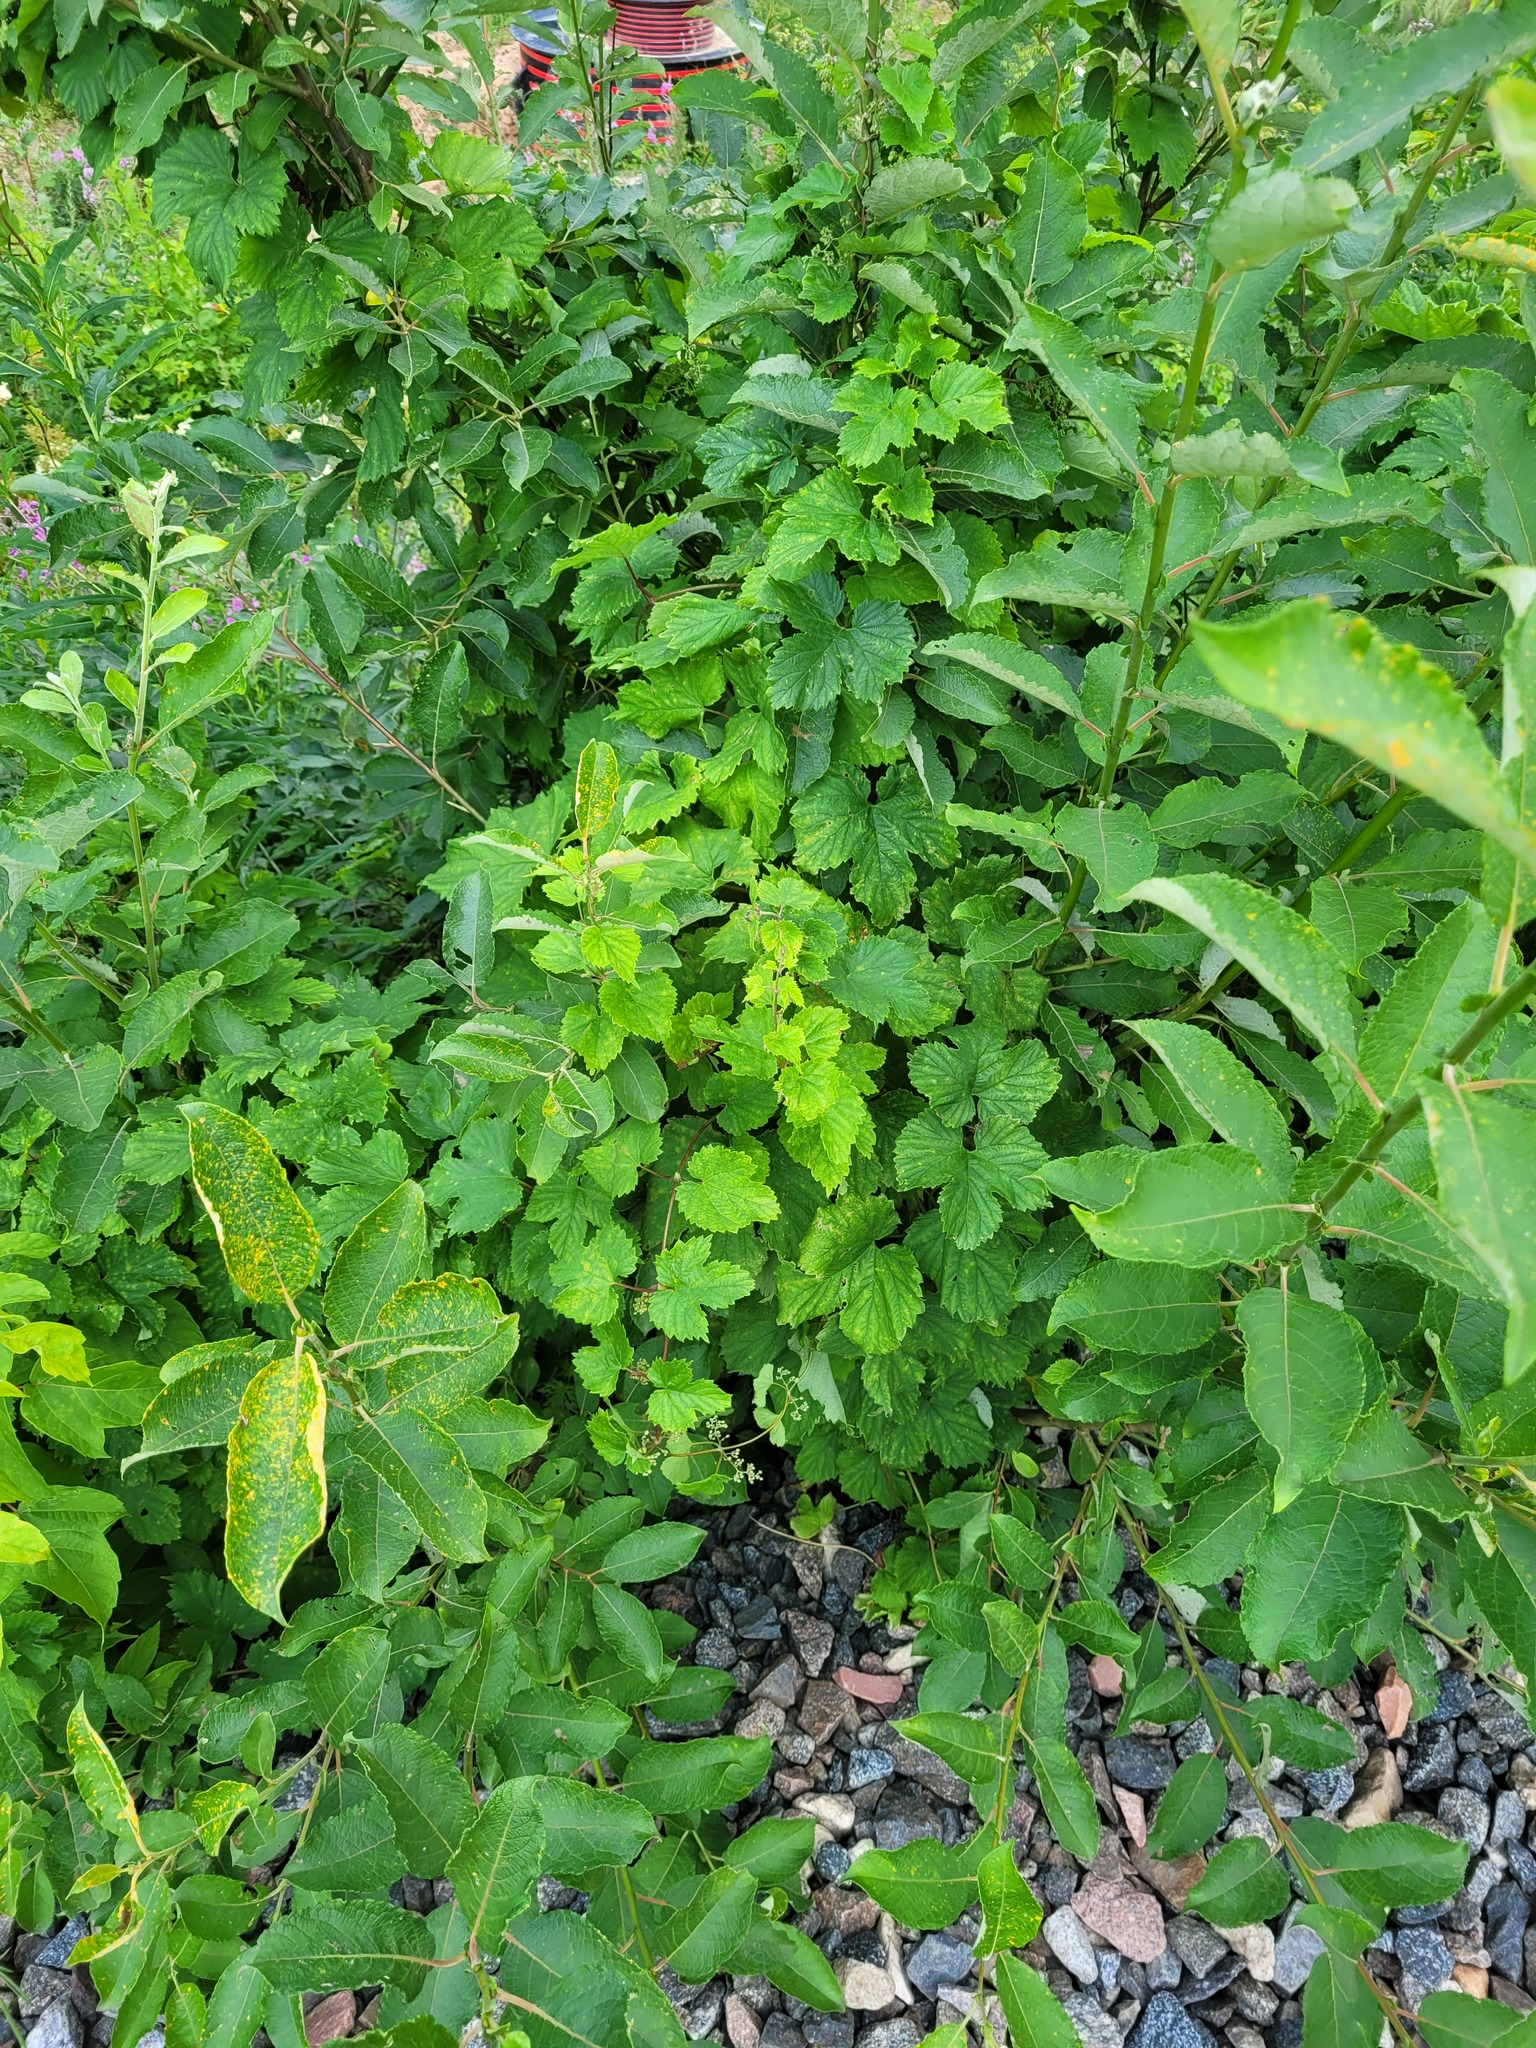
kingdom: Plantae
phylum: Tracheophyta
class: Magnoliopsida
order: Rosales
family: Cannabaceae
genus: Humulus
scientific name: Humulus lupulus
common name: Hop
